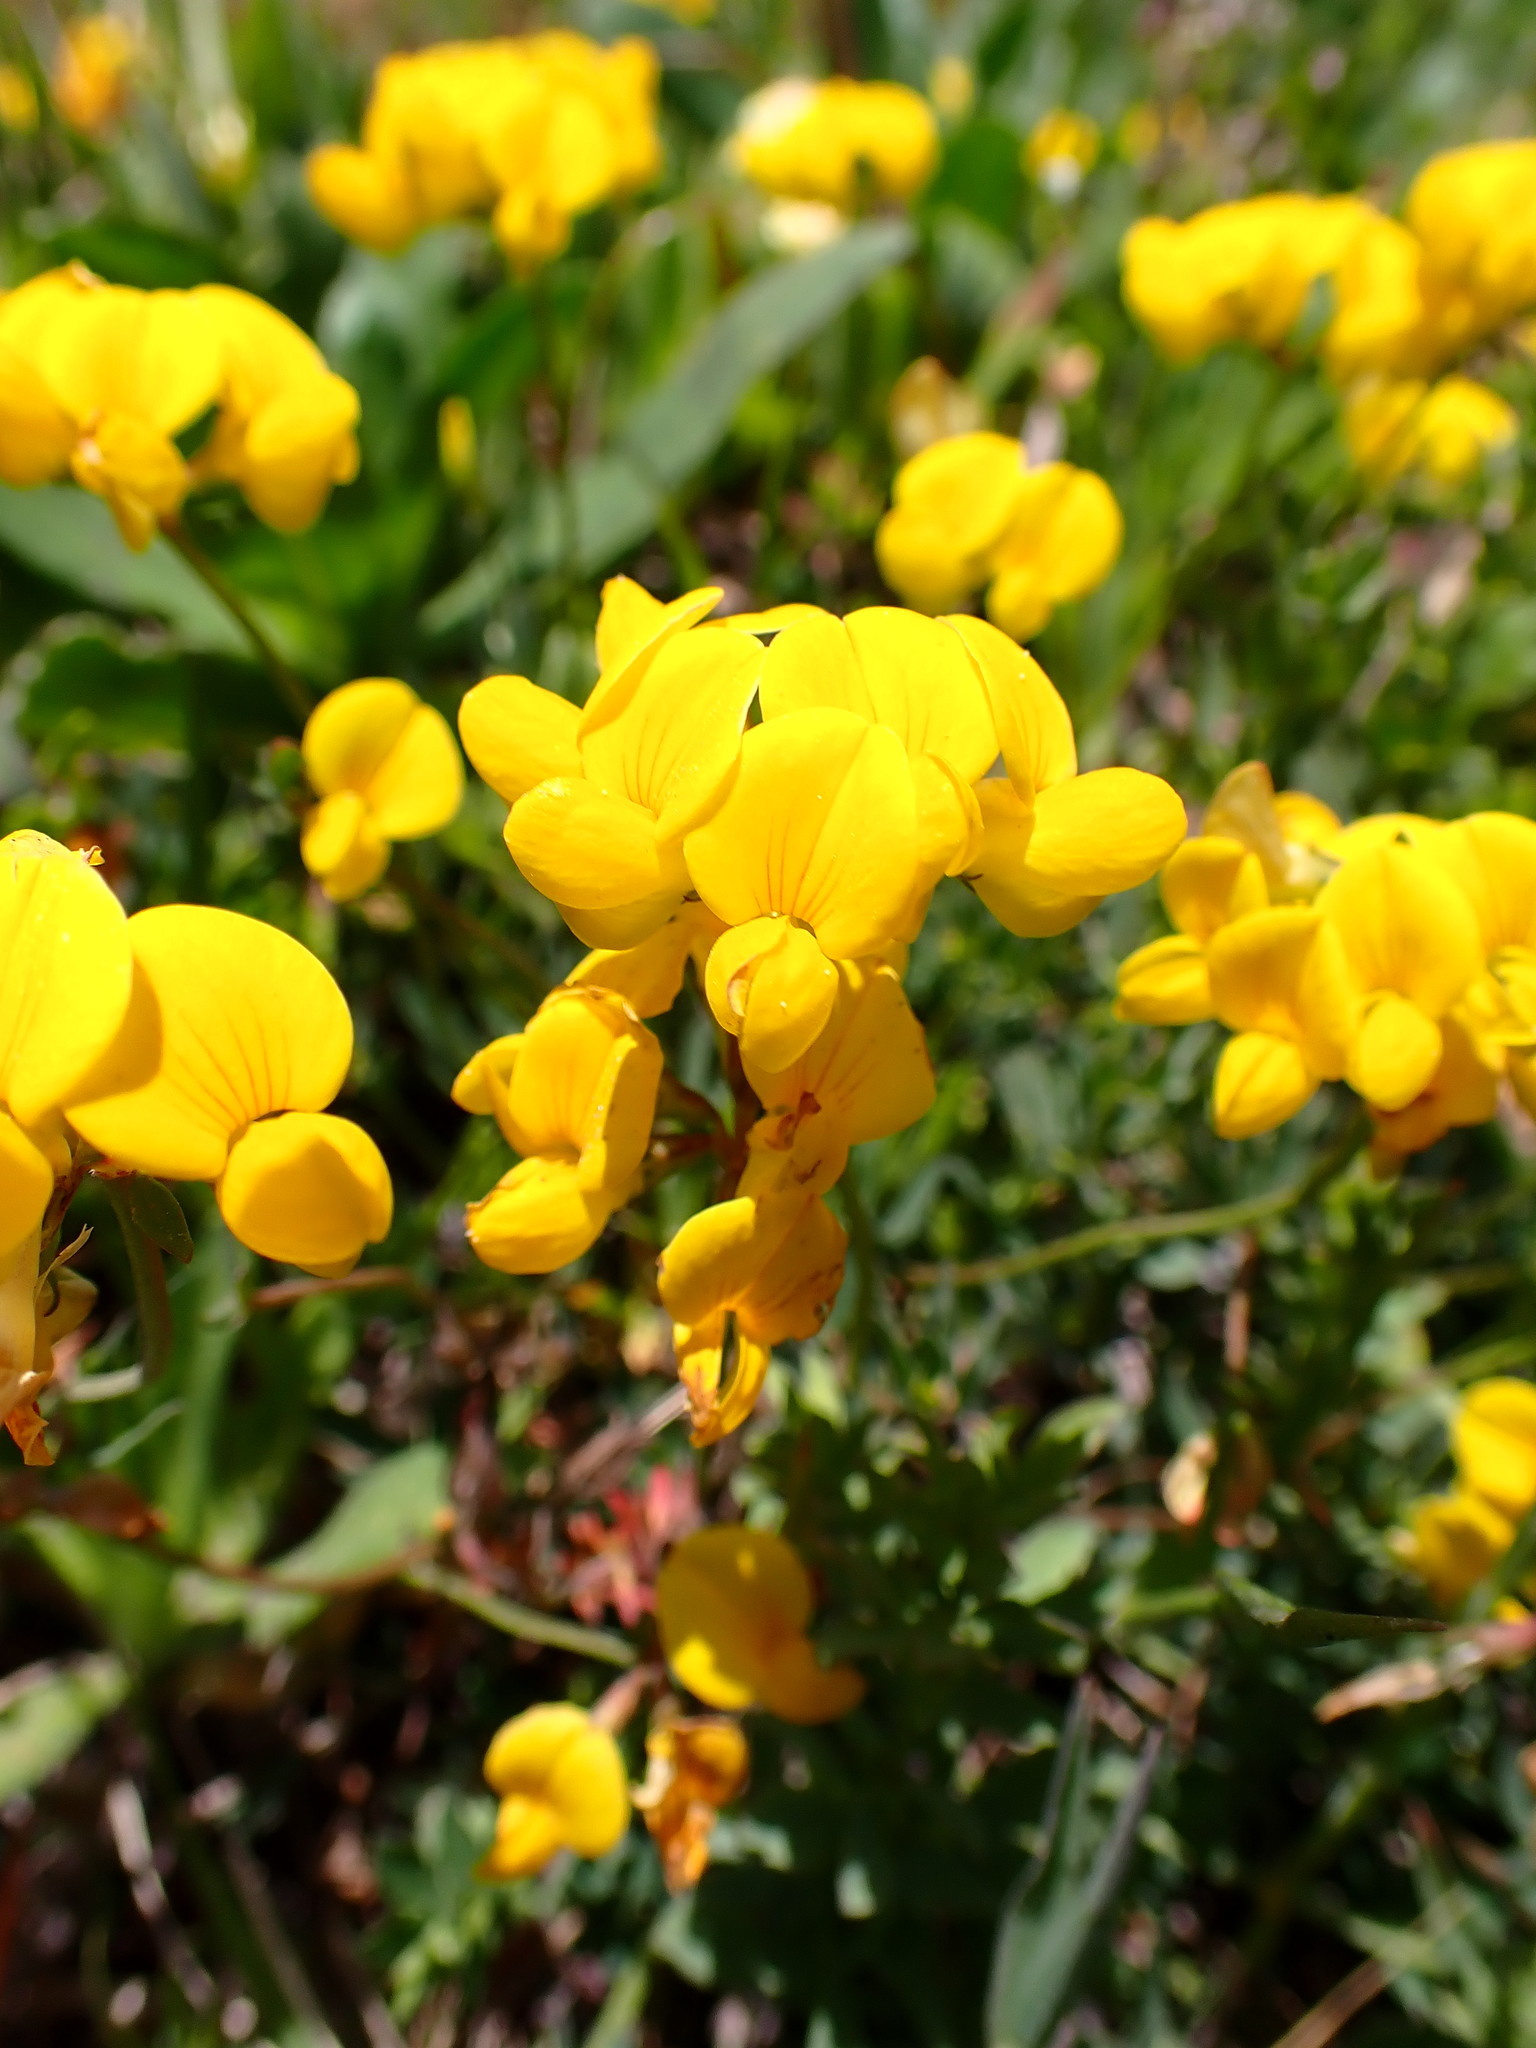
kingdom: Plantae
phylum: Tracheophyta
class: Magnoliopsida
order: Fabales
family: Fabaceae
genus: Lotus
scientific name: Lotus corniculatus
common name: Common bird's-foot-trefoil
